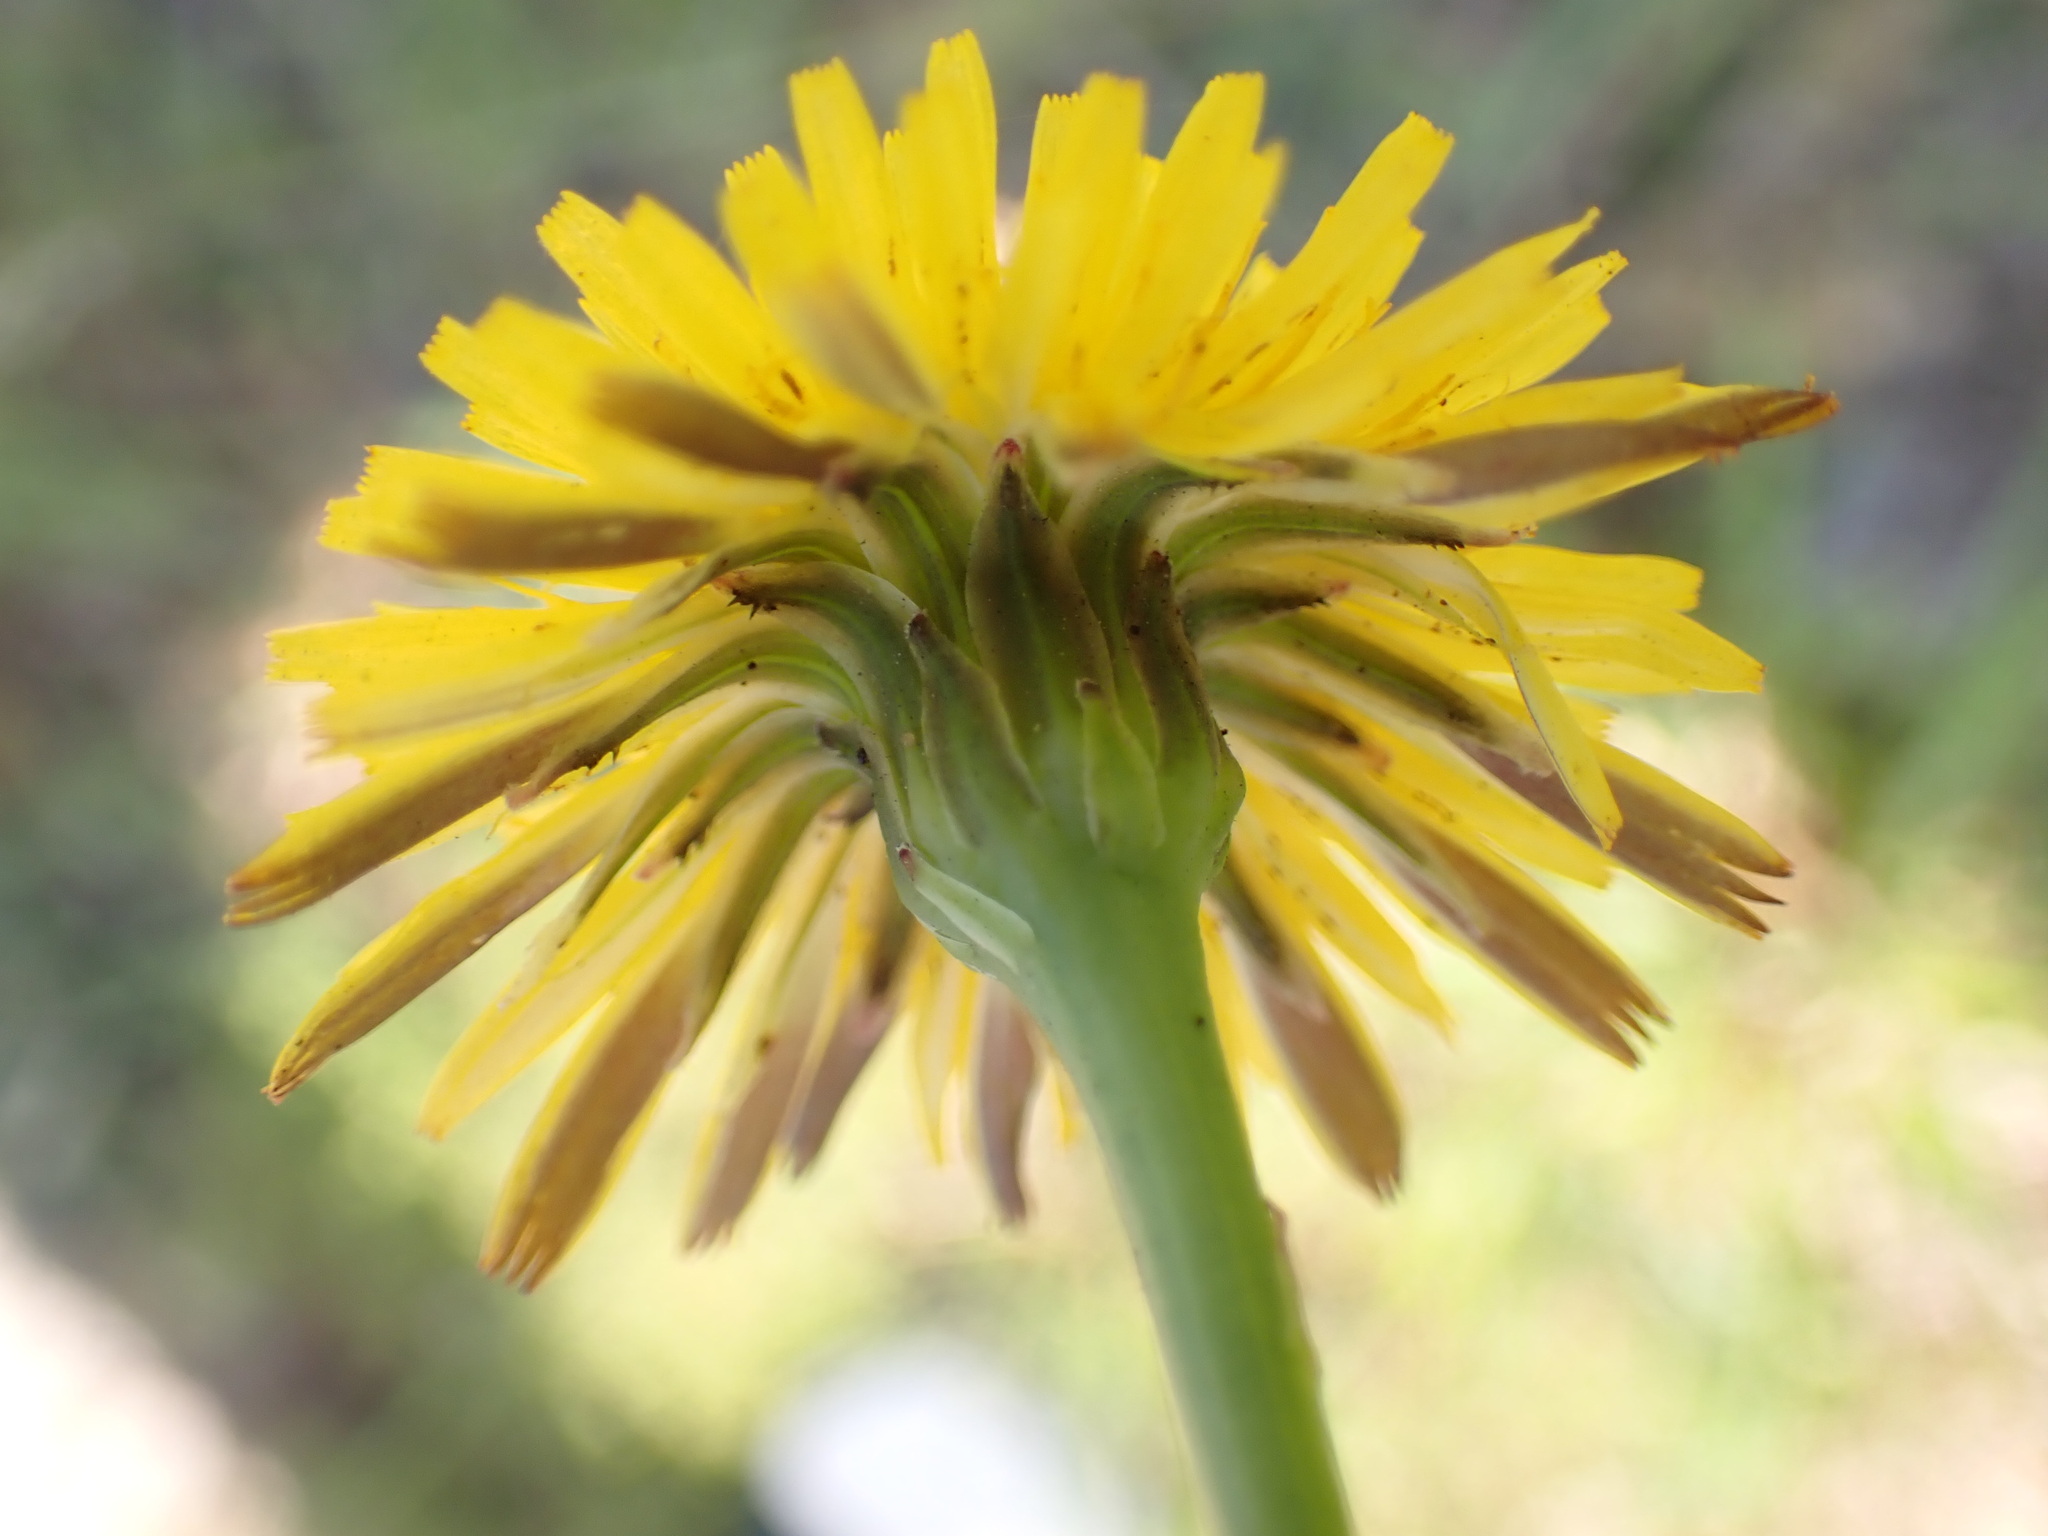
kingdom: Plantae
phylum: Tracheophyta
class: Magnoliopsida
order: Asterales
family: Asteraceae
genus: Hypochaeris
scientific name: Hypochaeris radicata
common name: Flatweed
